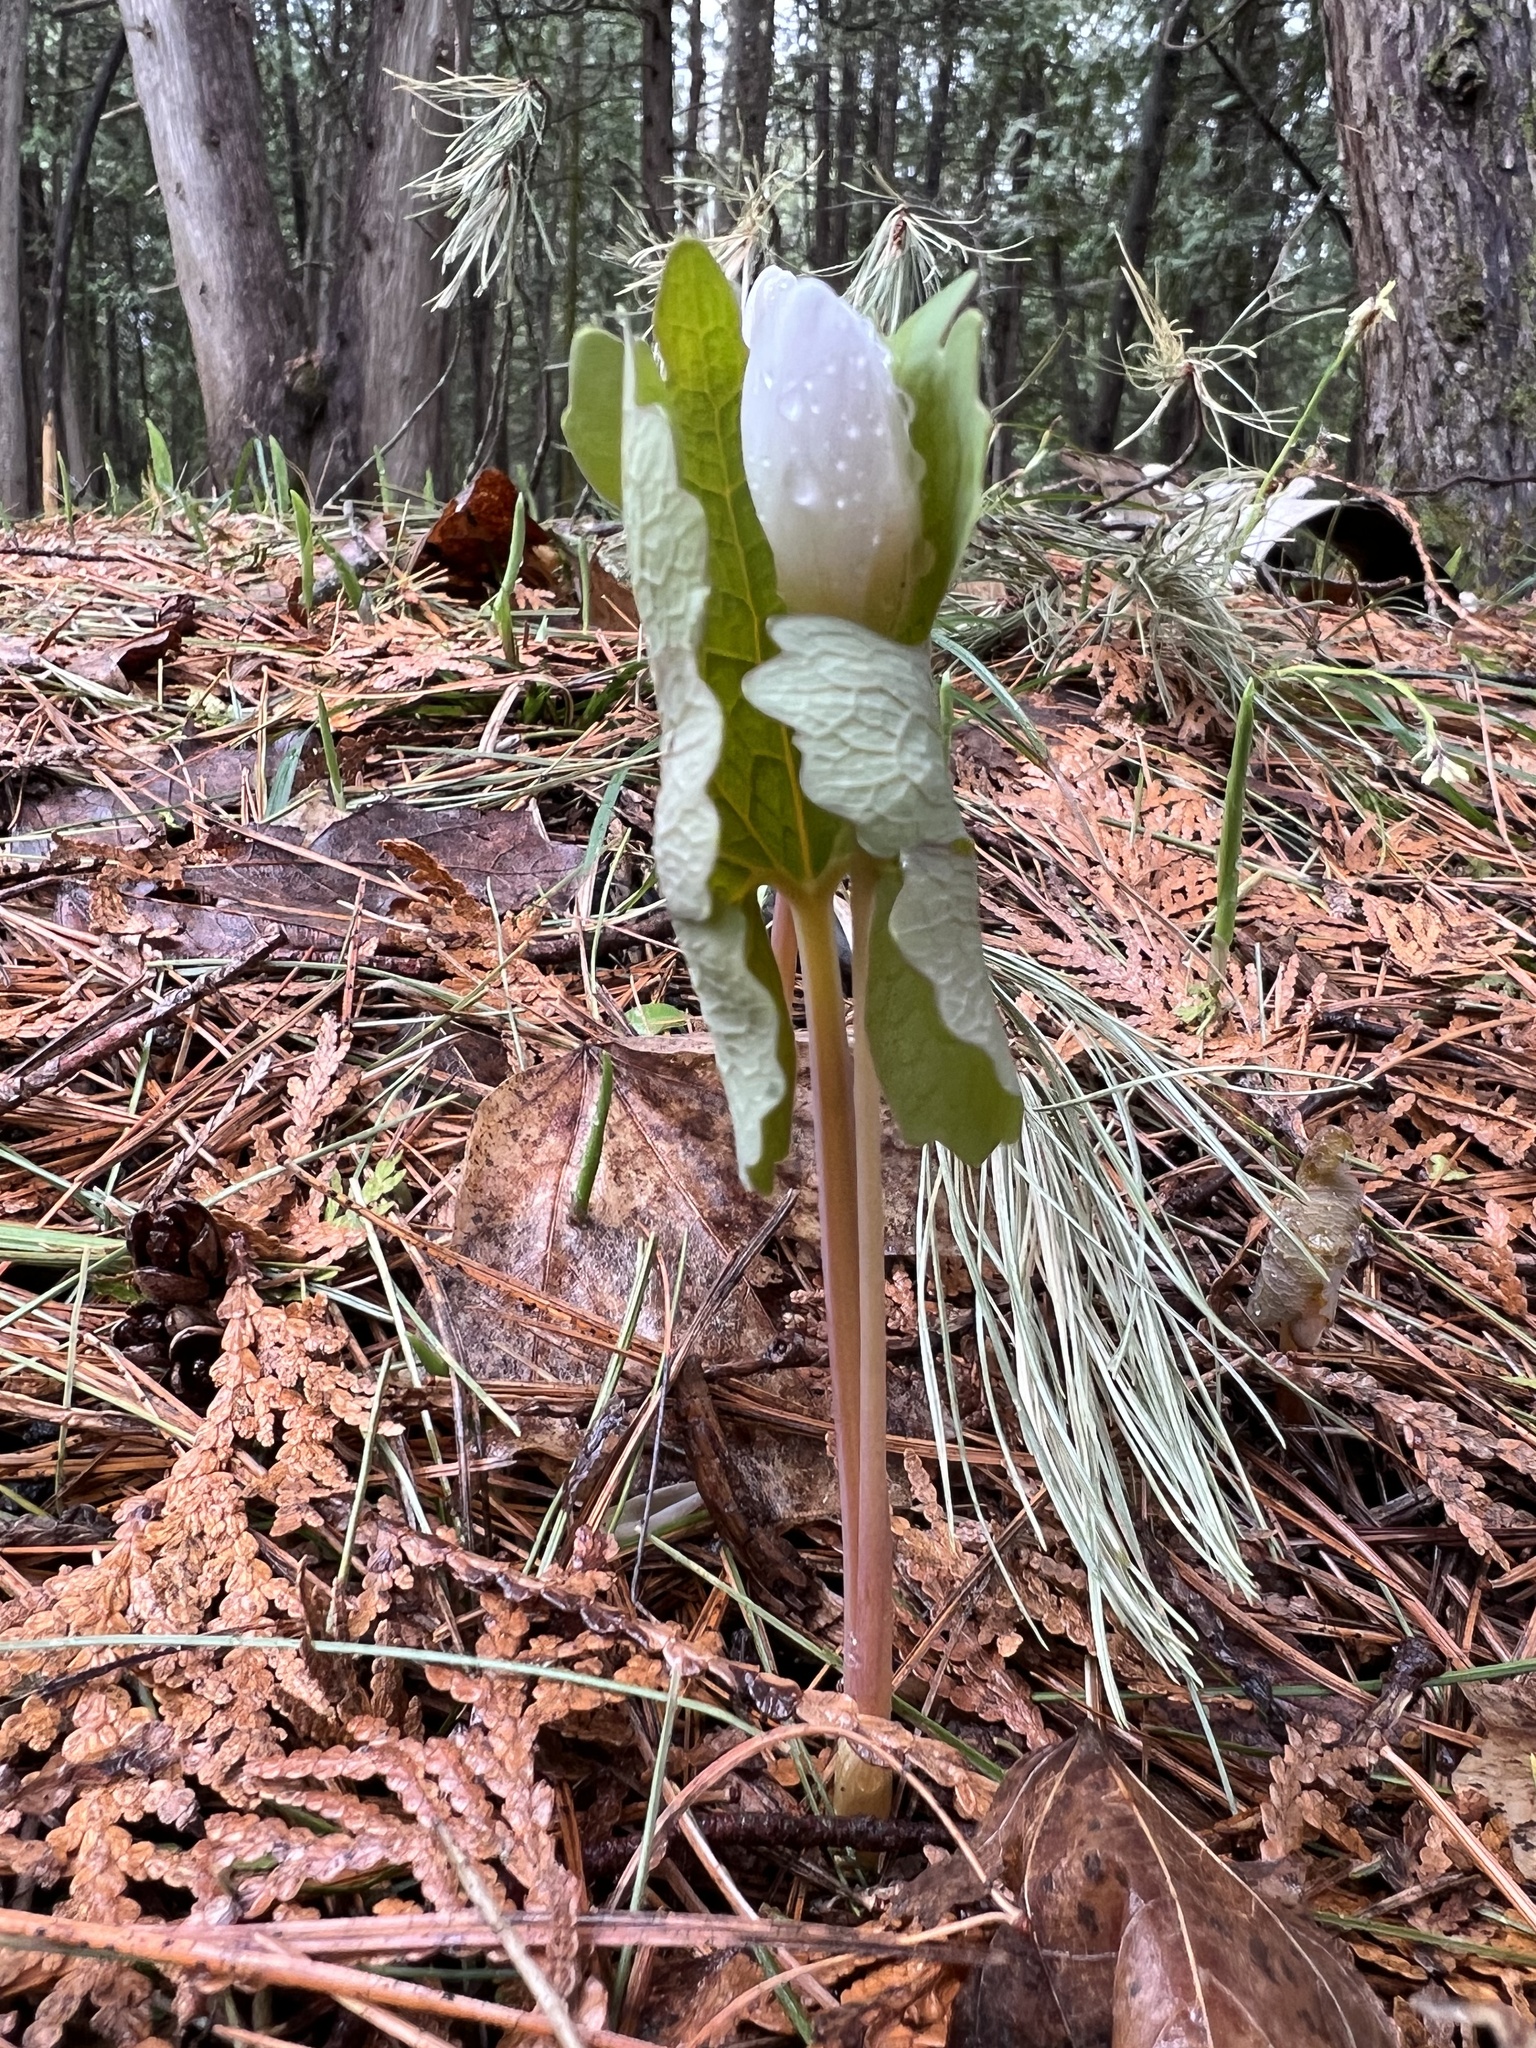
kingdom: Plantae
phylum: Tracheophyta
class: Magnoliopsida
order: Ranunculales
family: Papaveraceae
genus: Sanguinaria
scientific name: Sanguinaria canadensis
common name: Bloodroot
